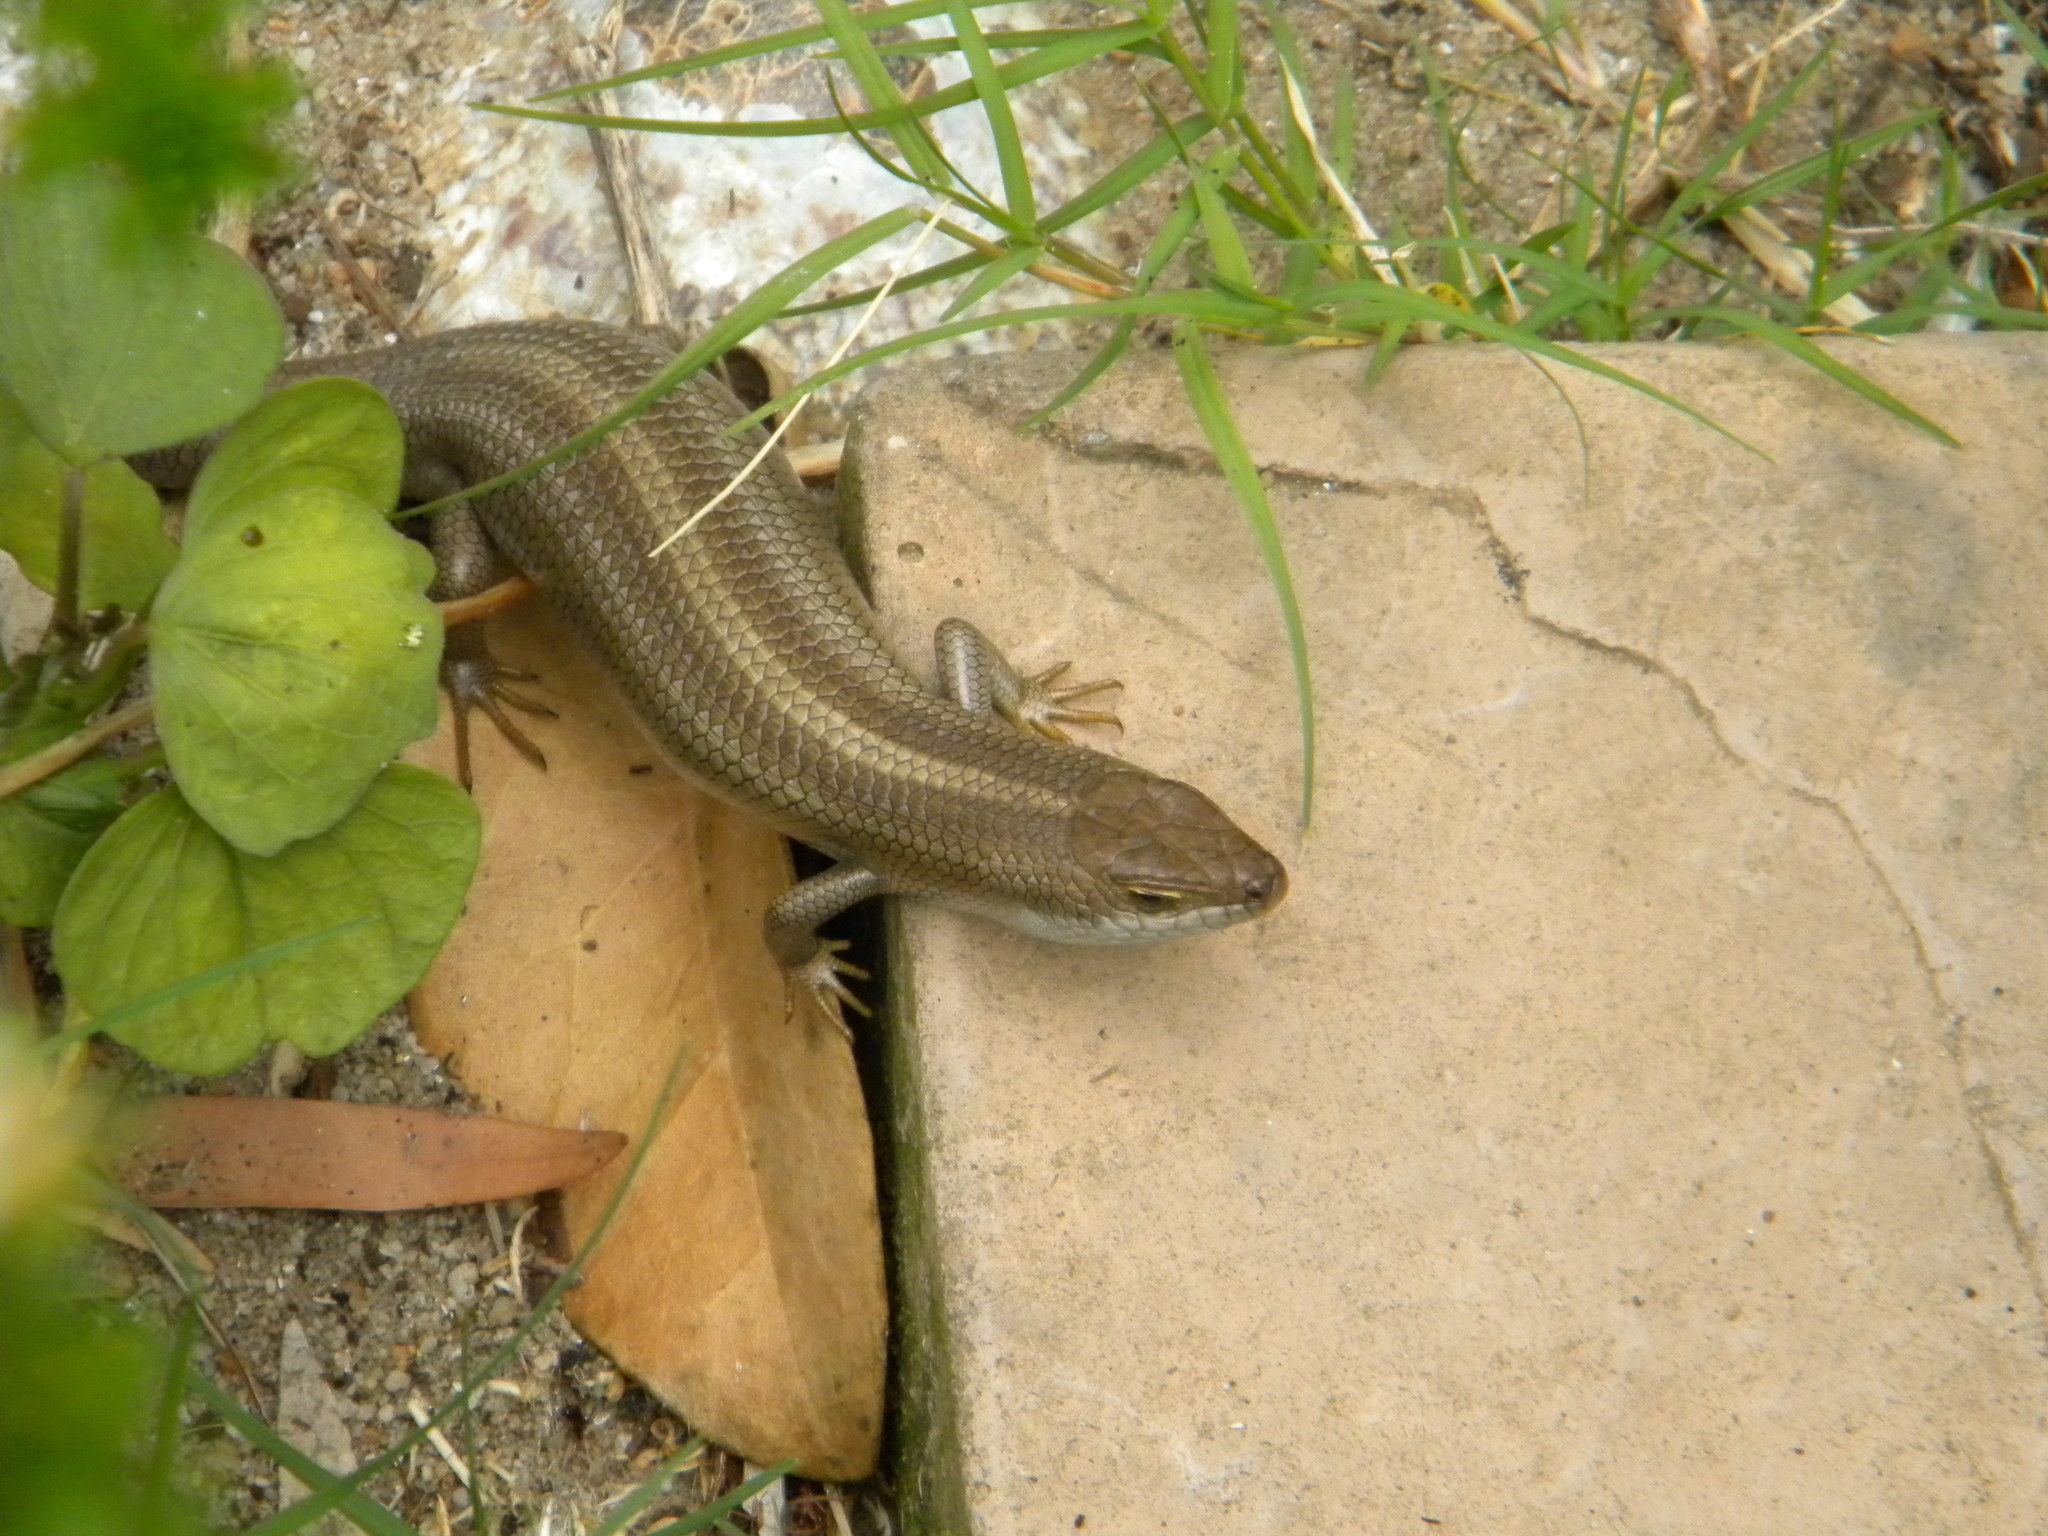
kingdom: Animalia
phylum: Chordata
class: Squamata
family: Scincidae
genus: Trachylepis
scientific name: Trachylepis capensis
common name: Cape skink
